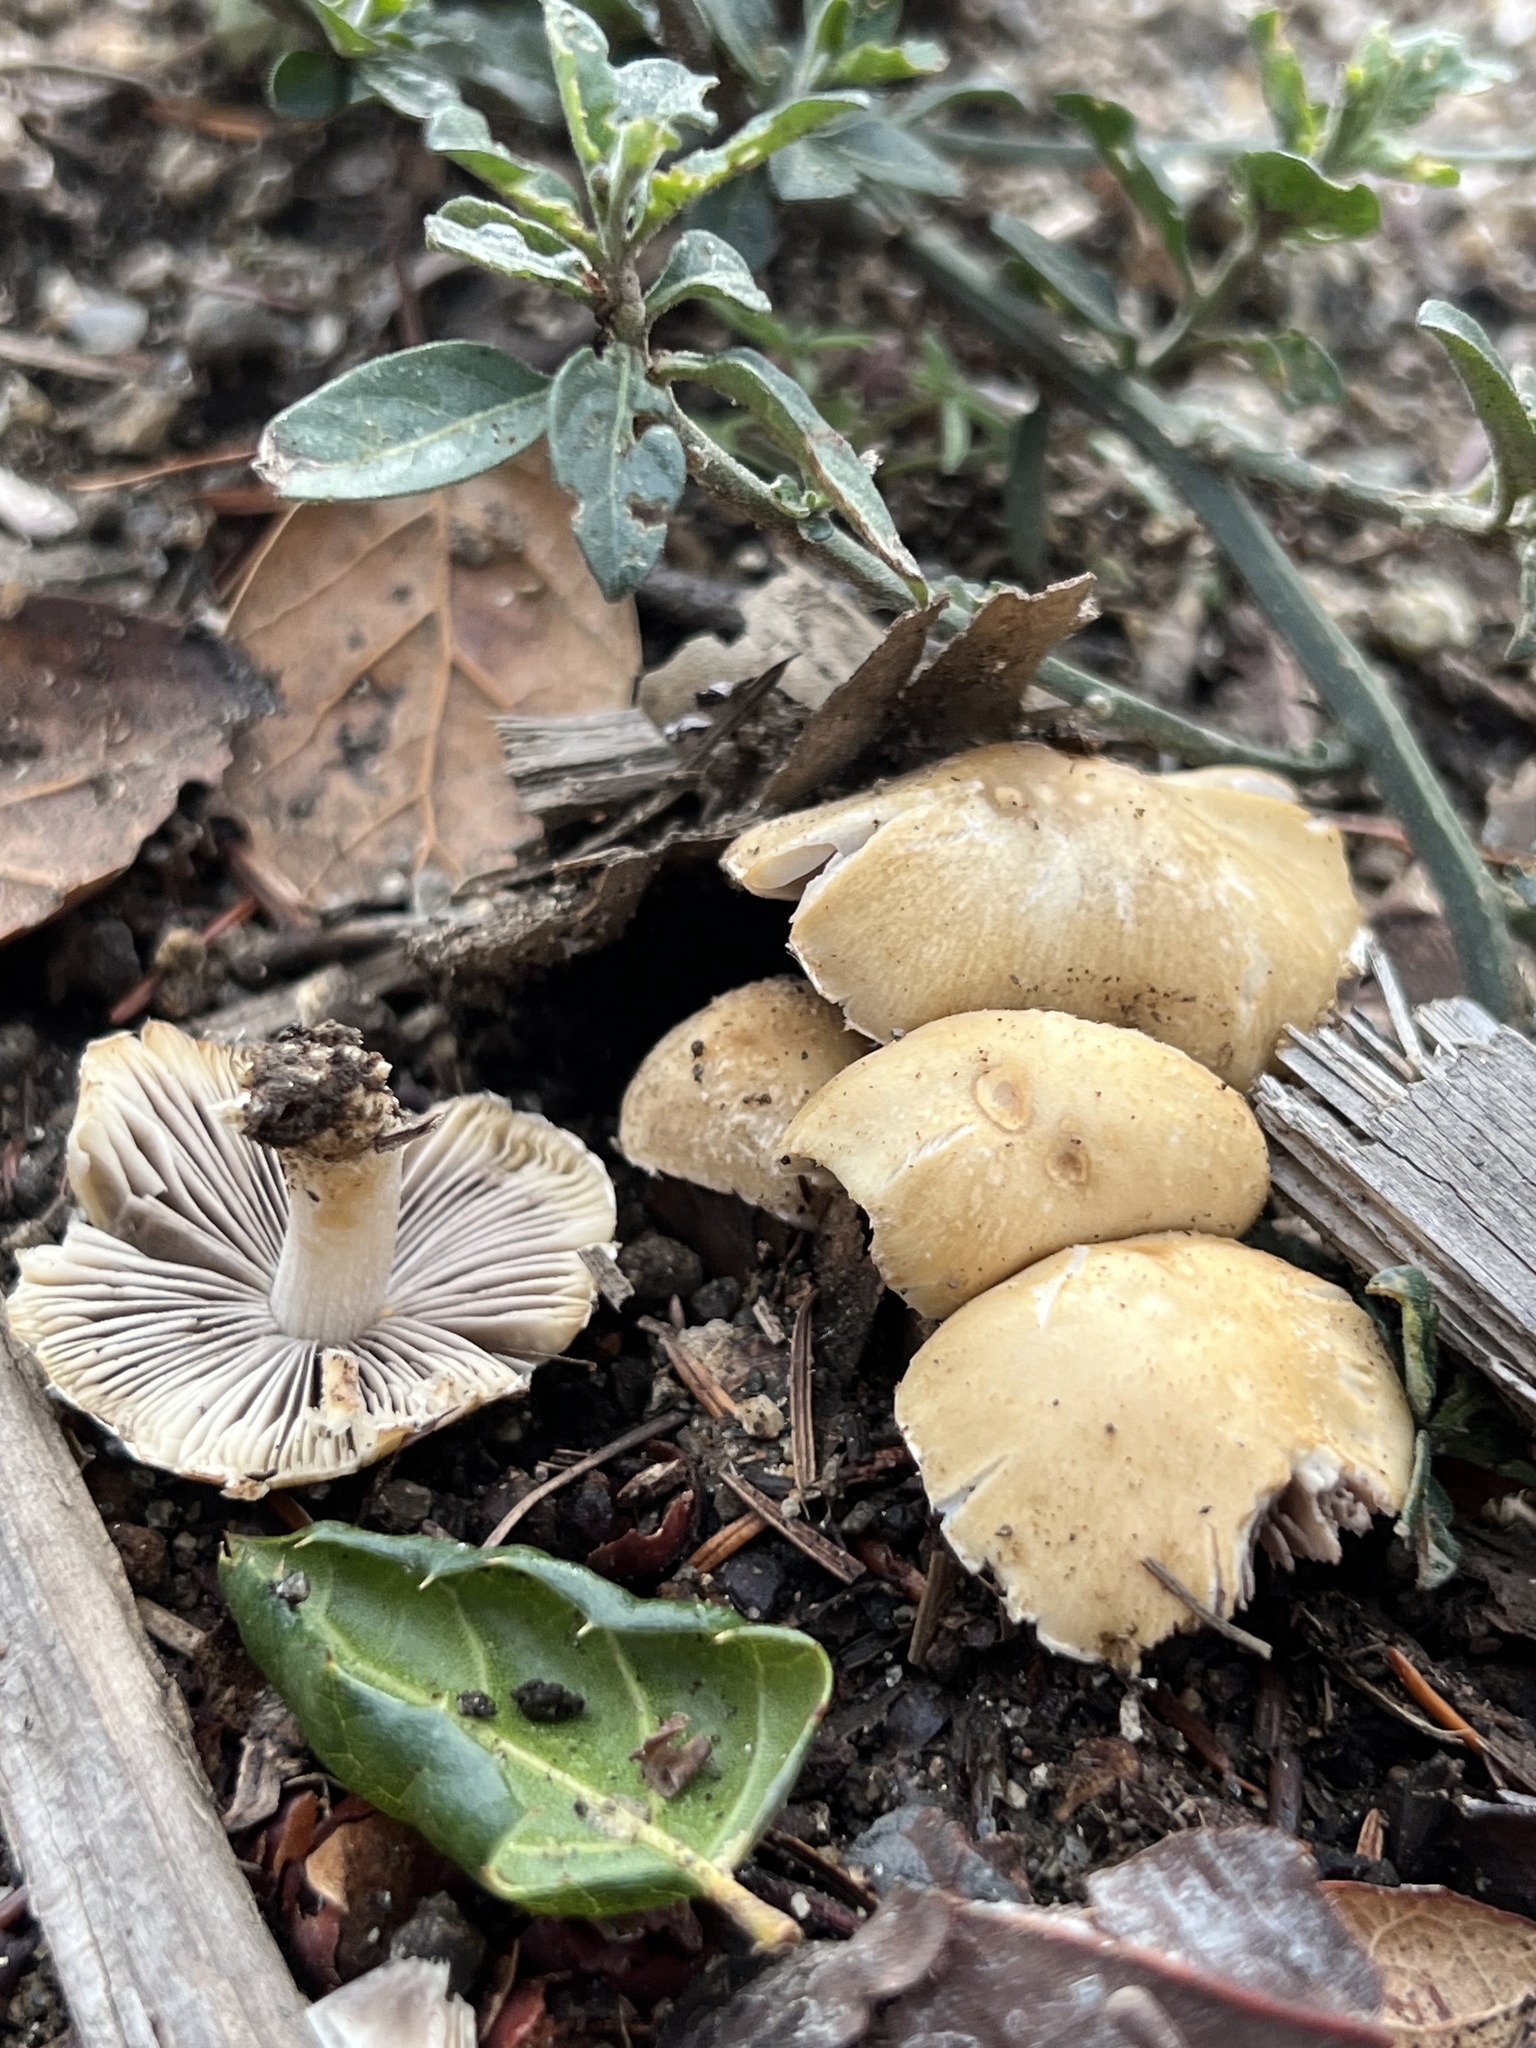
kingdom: Fungi
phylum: Basidiomycota
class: Agaricomycetes
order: Agaricales
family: Psathyrellaceae
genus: Candolleomyces
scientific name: Candolleomyces candolleanus
